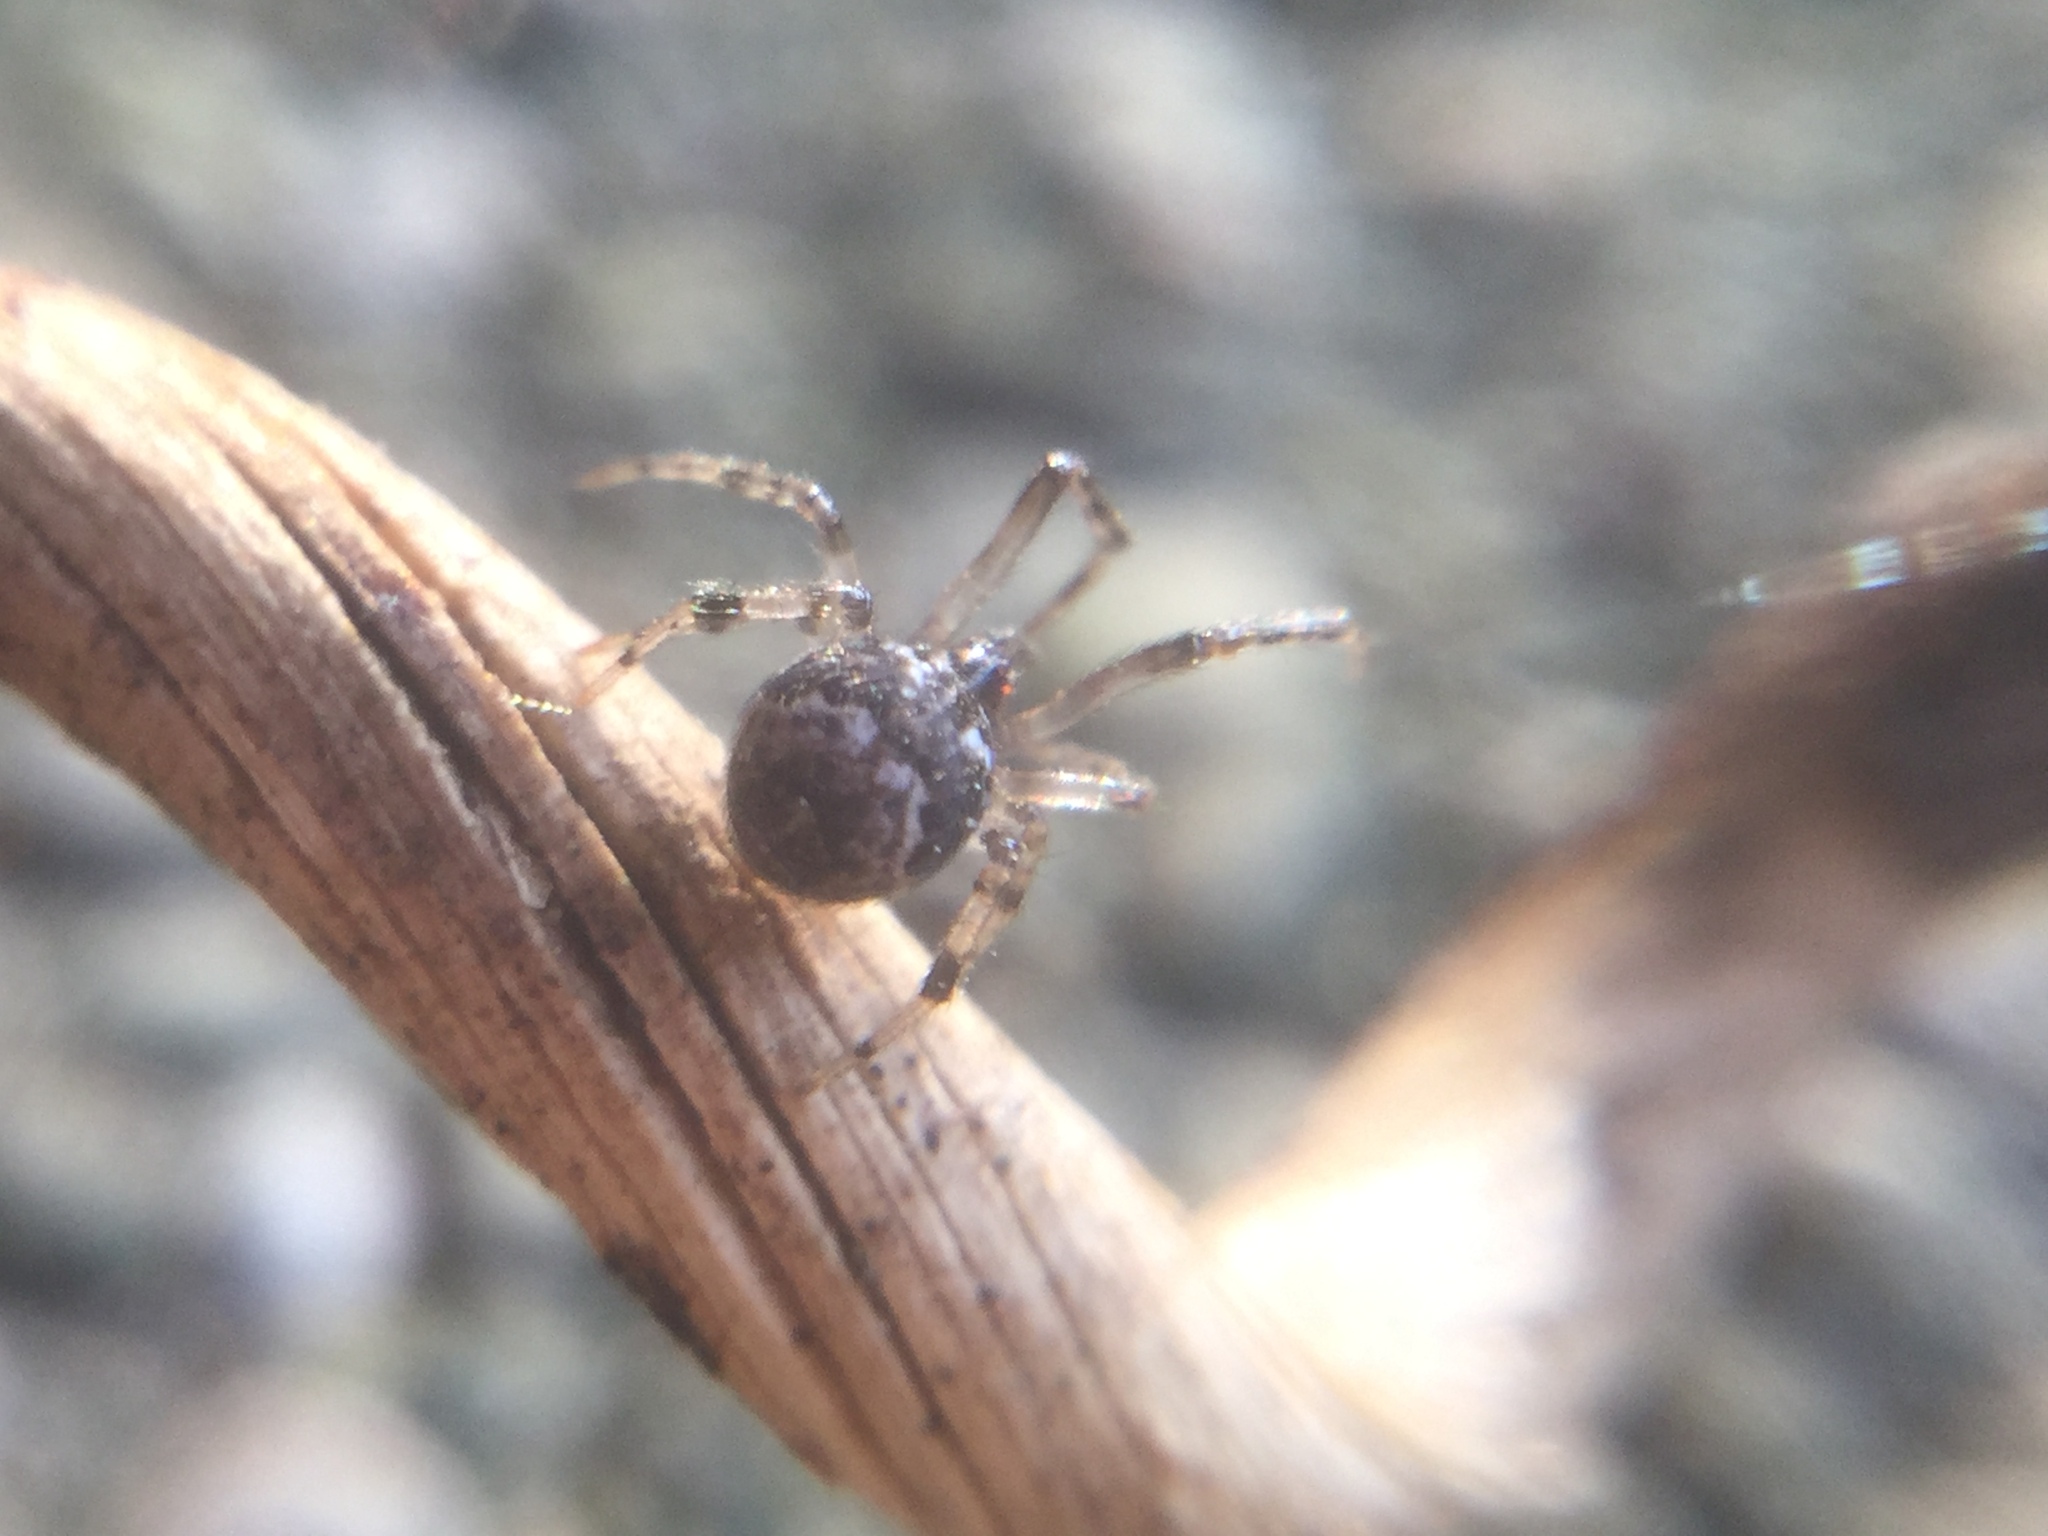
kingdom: Animalia
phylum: Arthropoda
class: Arachnida
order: Araneae
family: Theridiosomatidae
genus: Theridiosoma
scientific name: Theridiosoma gemmosum
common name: Ray spider
